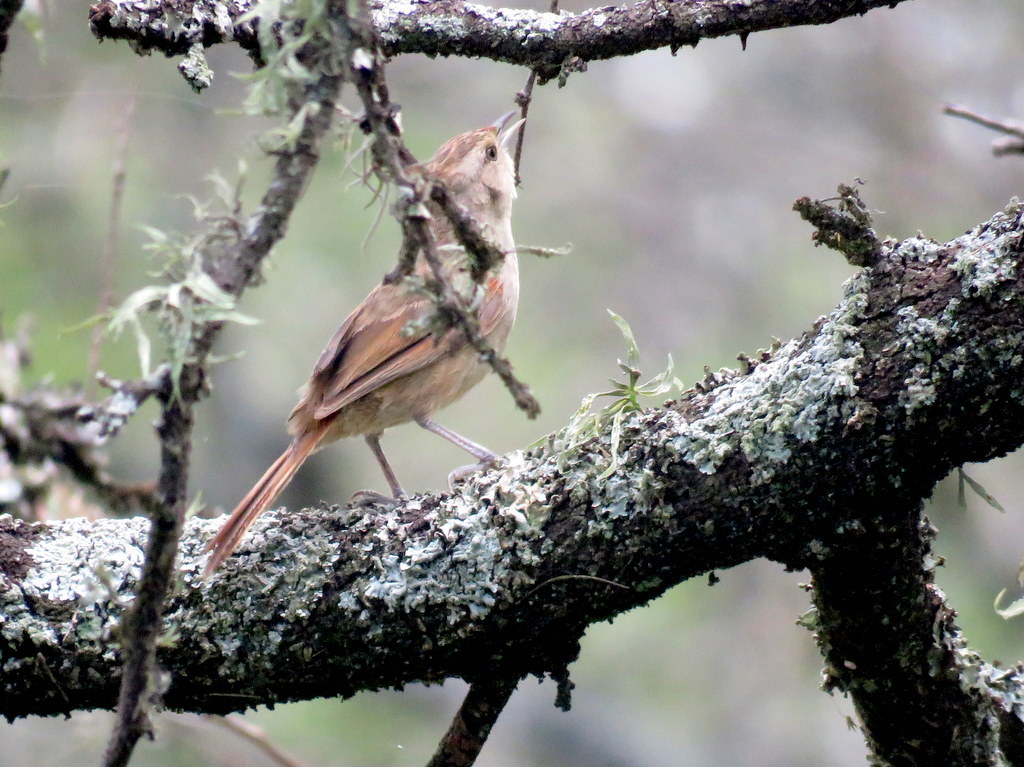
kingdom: Animalia
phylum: Chordata
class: Aves
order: Passeriformes
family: Furnariidae
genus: Phacellodomus
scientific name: Phacellodomus sibilatrix
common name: Little thornbird
